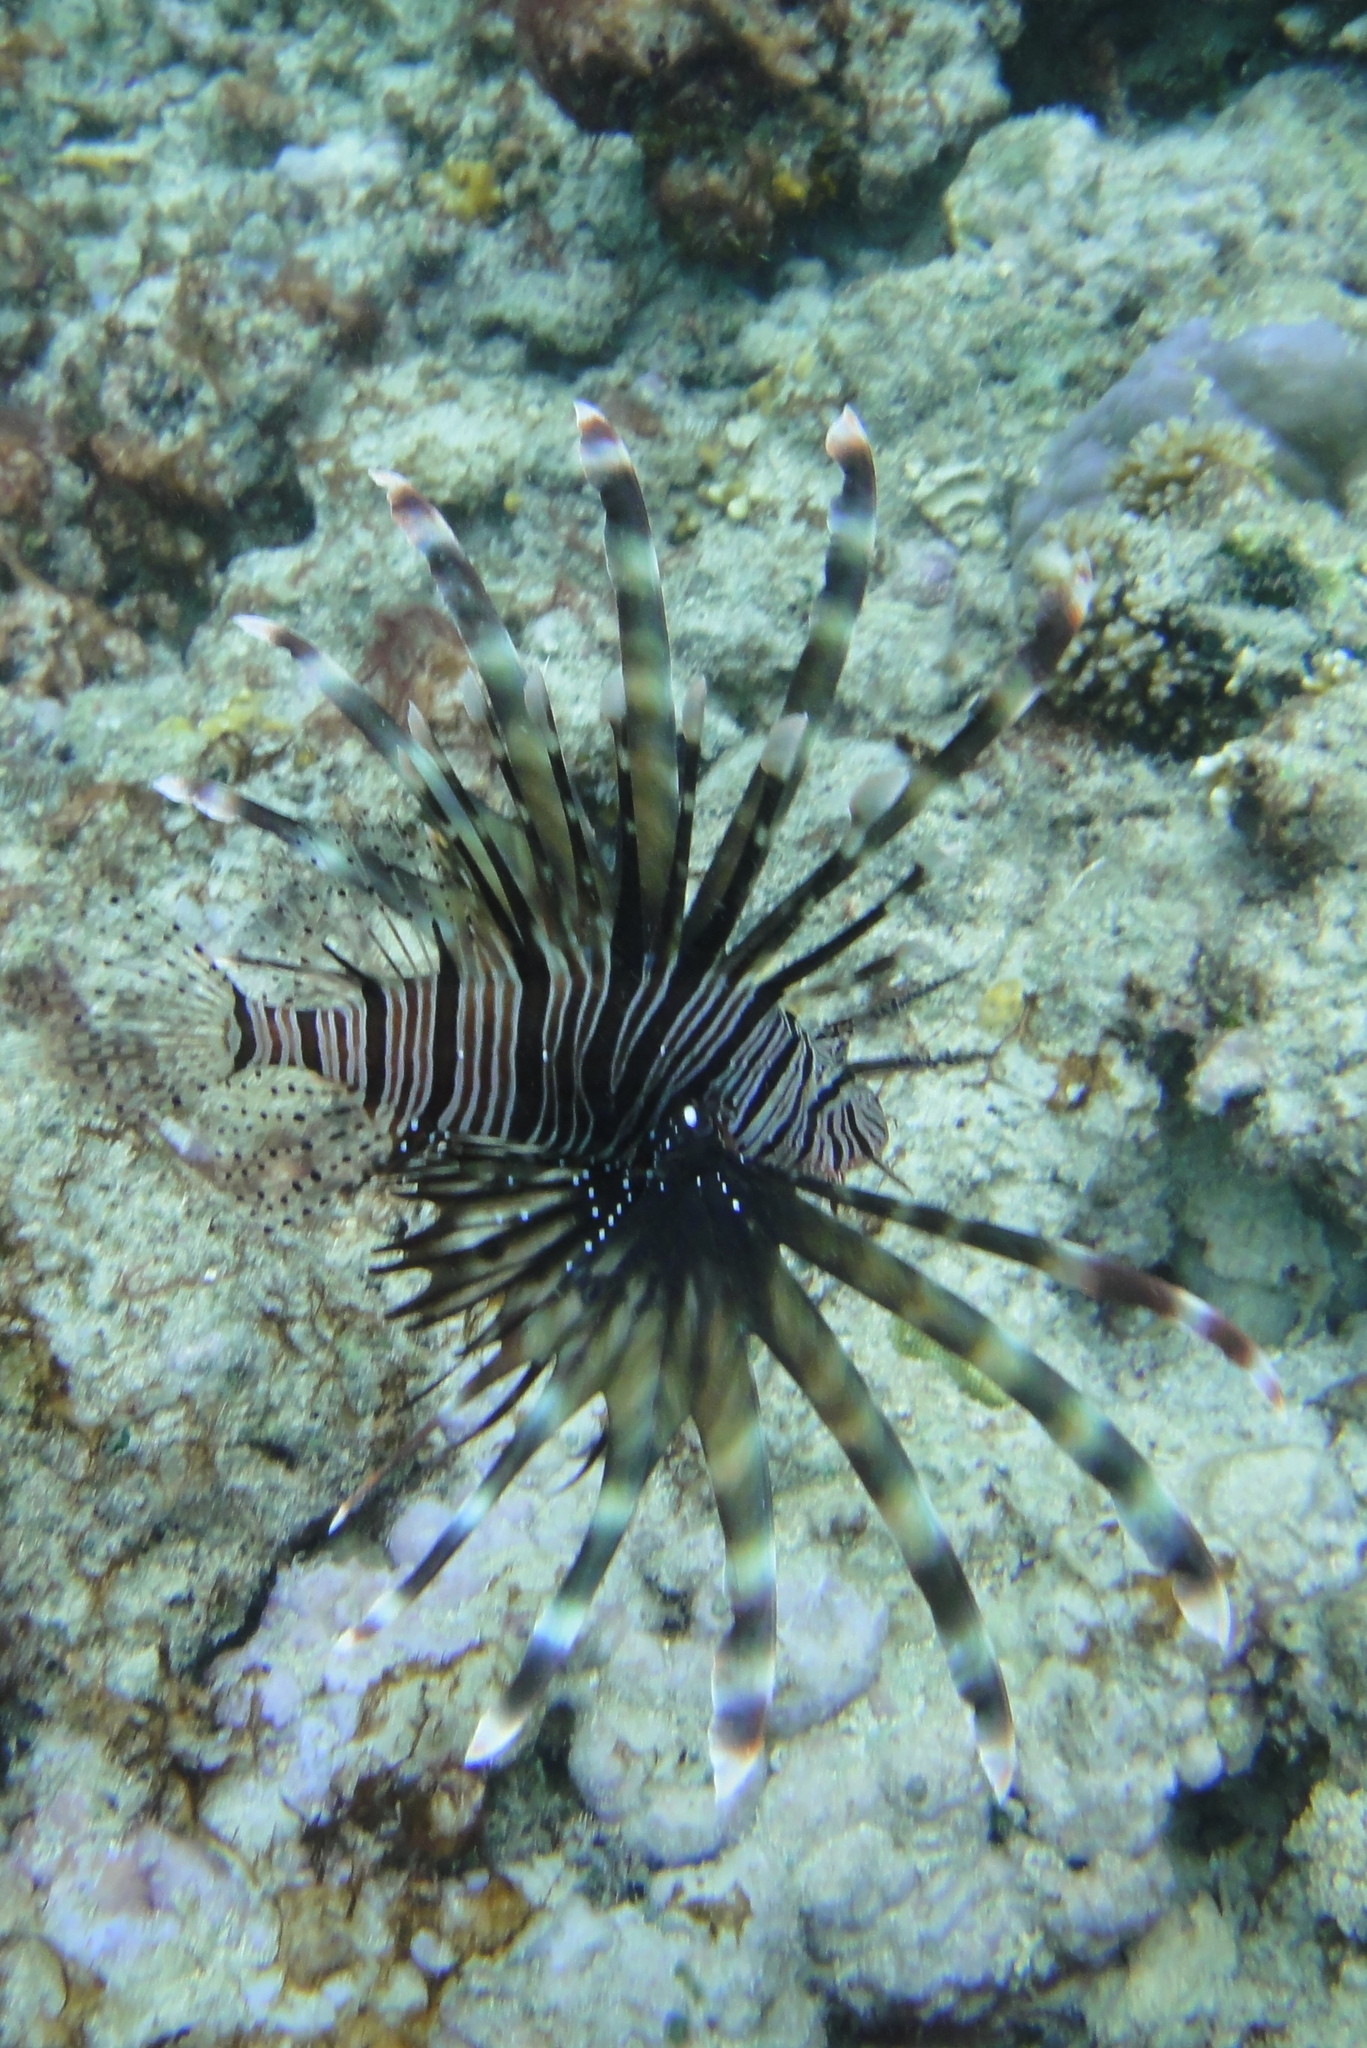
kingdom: Animalia
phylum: Chordata
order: Scorpaeniformes
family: Scorpaenidae
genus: Pterois
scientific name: Pterois miles
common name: Devil firefish
